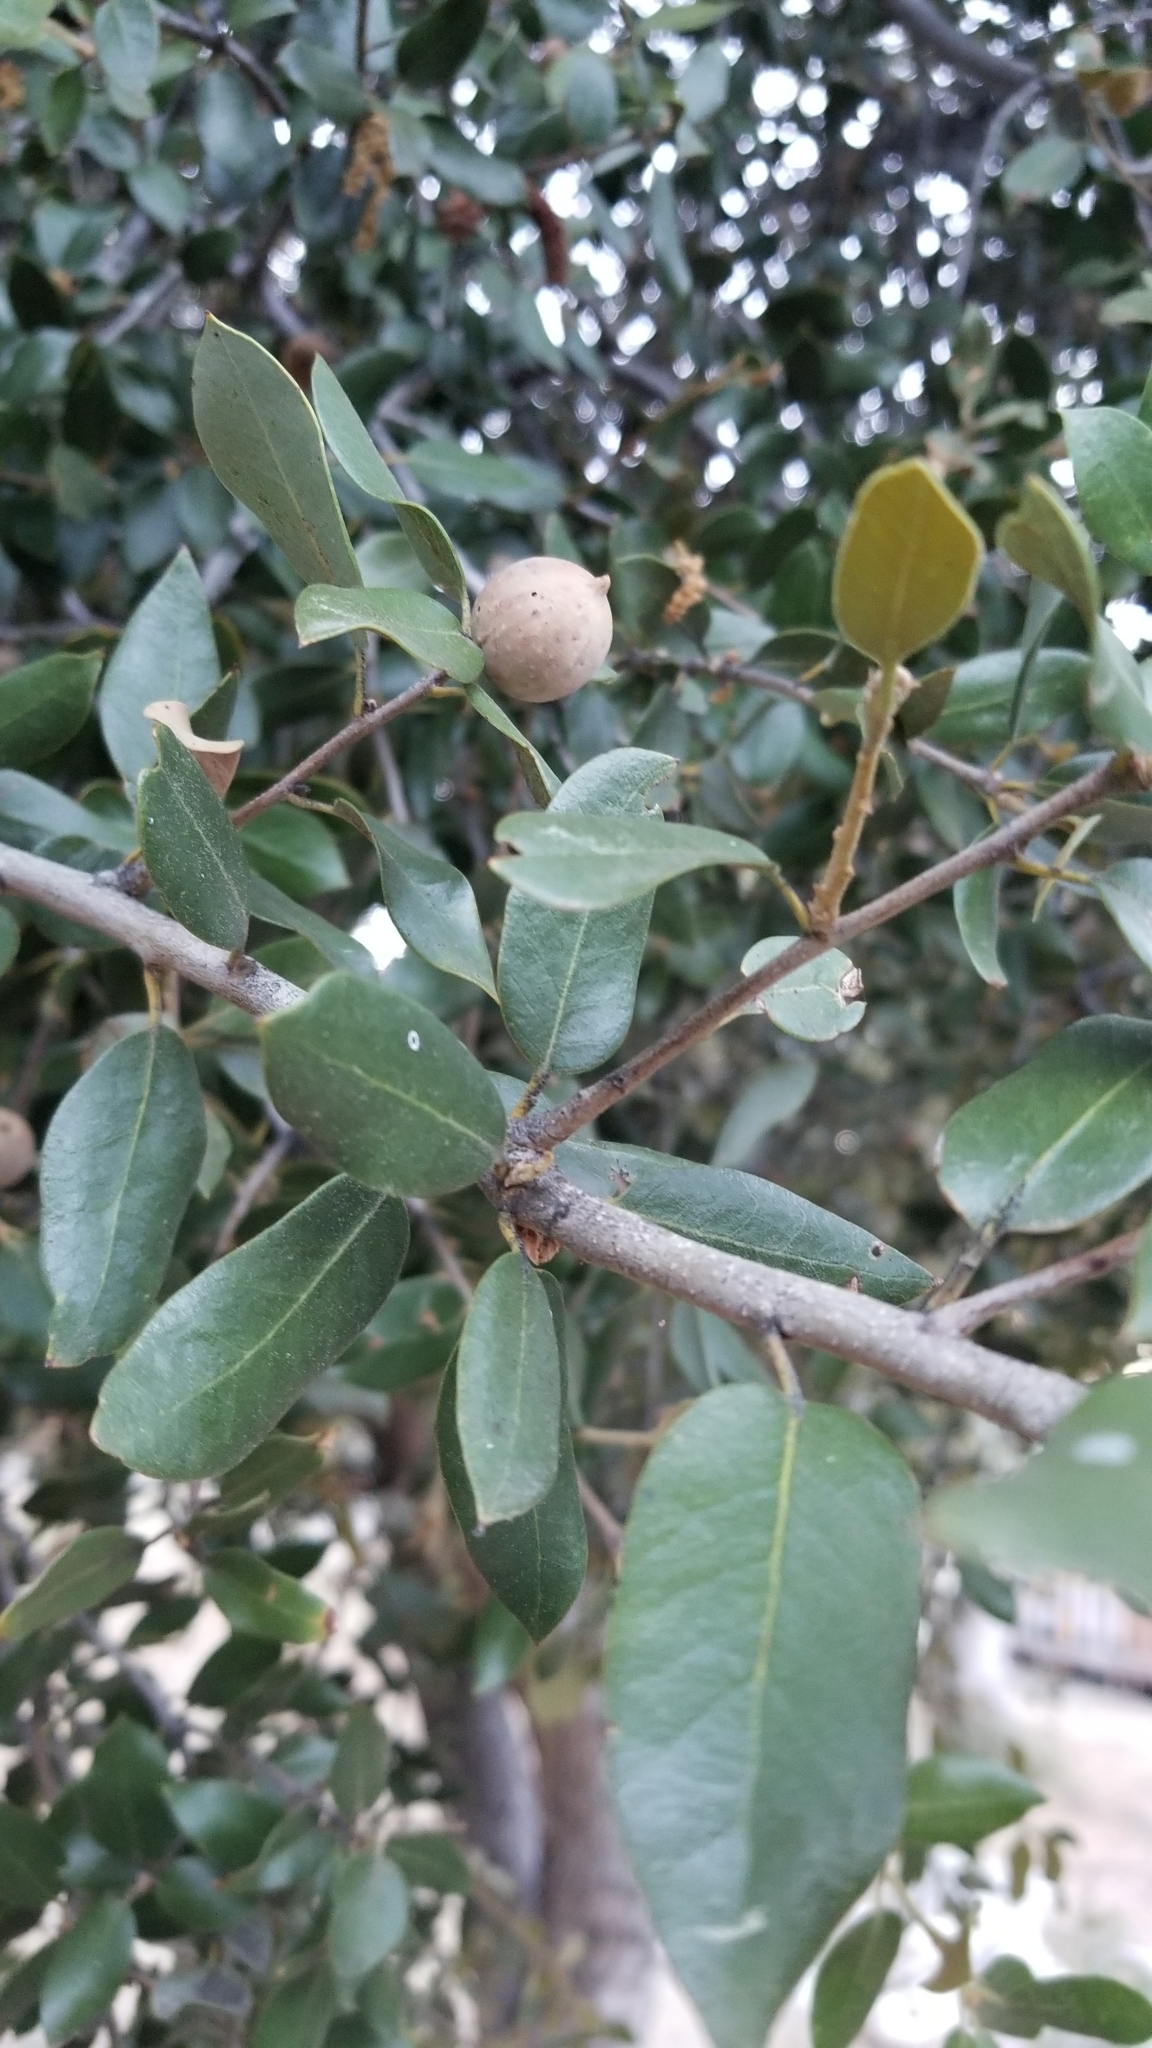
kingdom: Plantae
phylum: Tracheophyta
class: Magnoliopsida
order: Fagales
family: Fagaceae
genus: Quercus
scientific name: Quercus chrysolepis
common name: Canyon live oak
